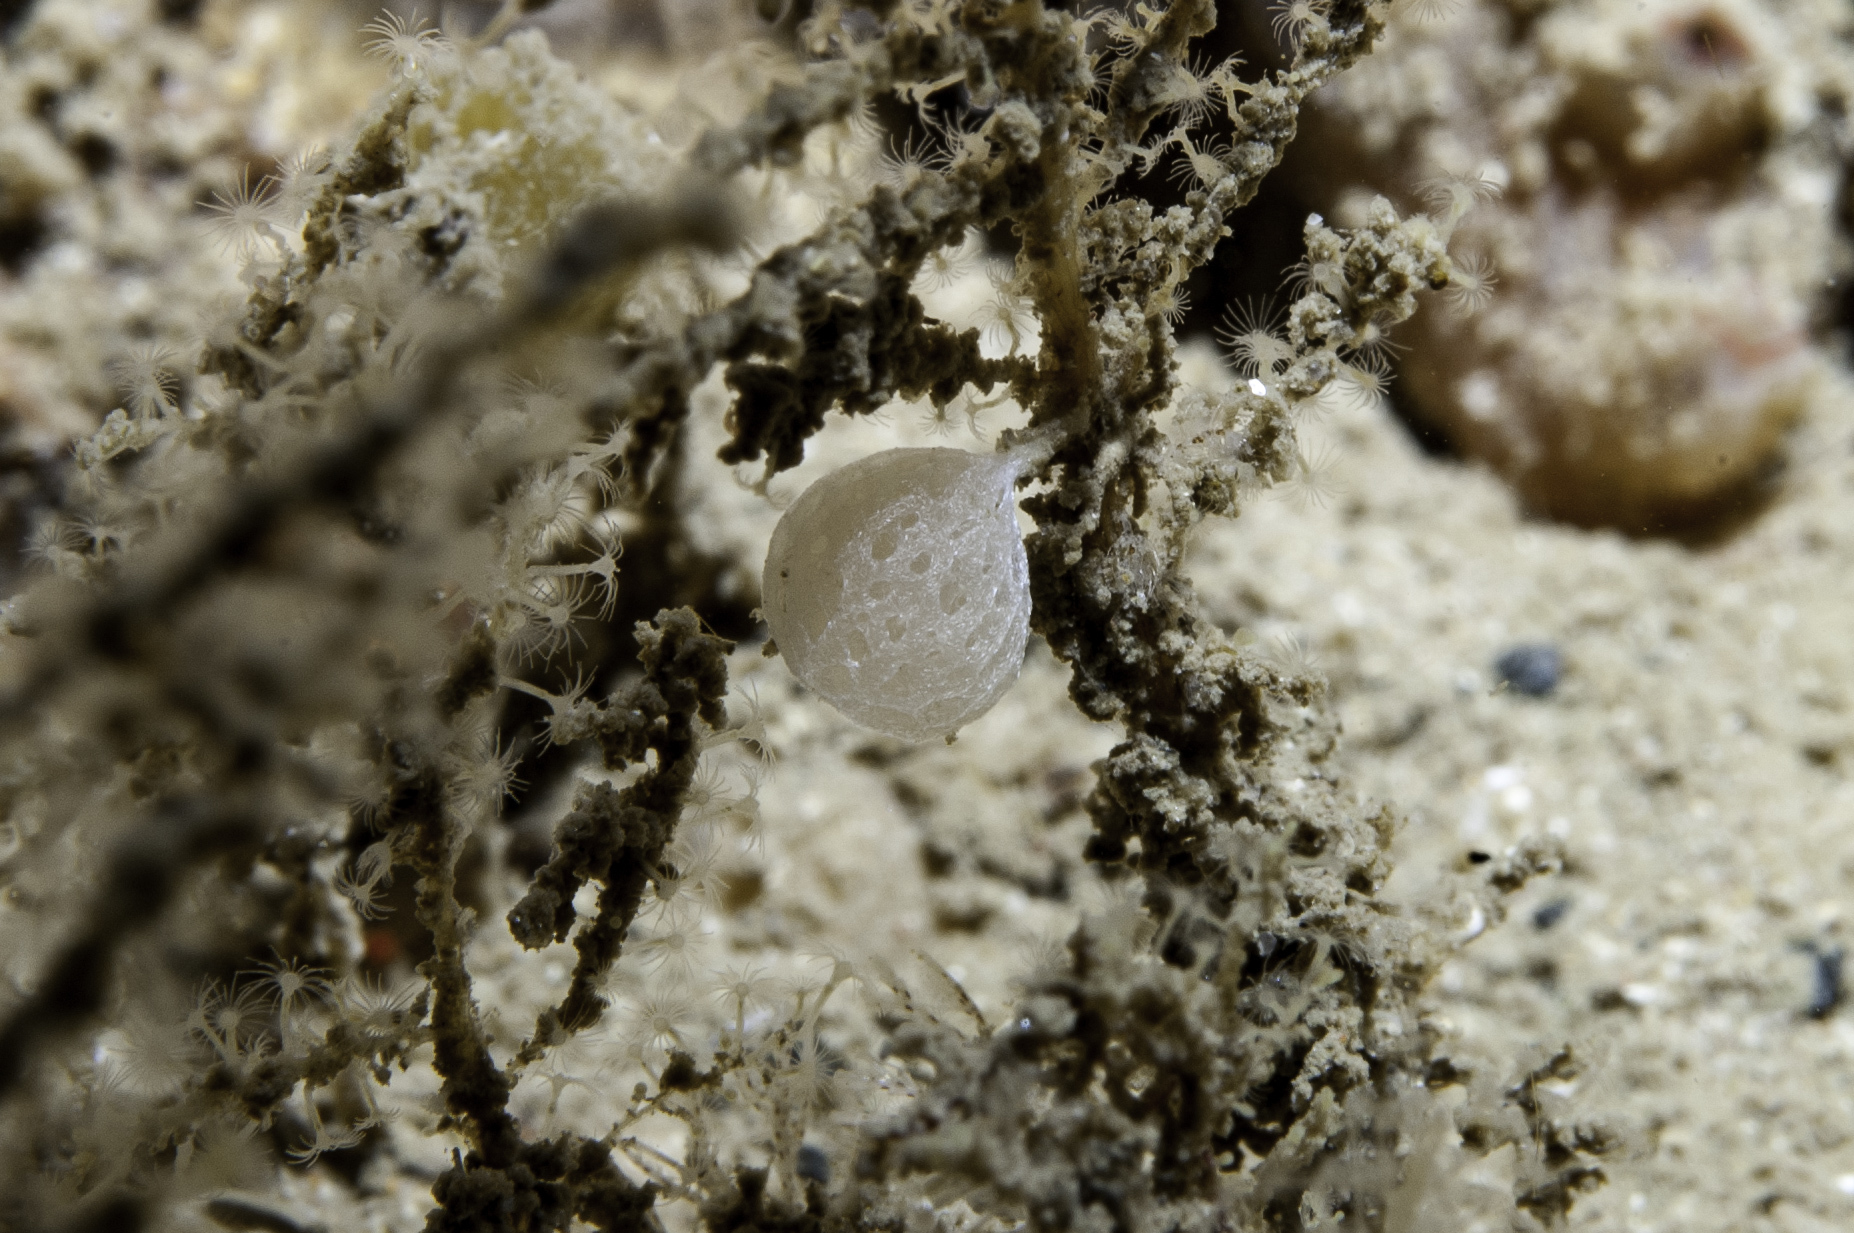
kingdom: Animalia
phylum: Porifera
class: Calcarea
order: Clathrinida
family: Clathrinidae
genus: Clathrina
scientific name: Clathrina lacunosa
